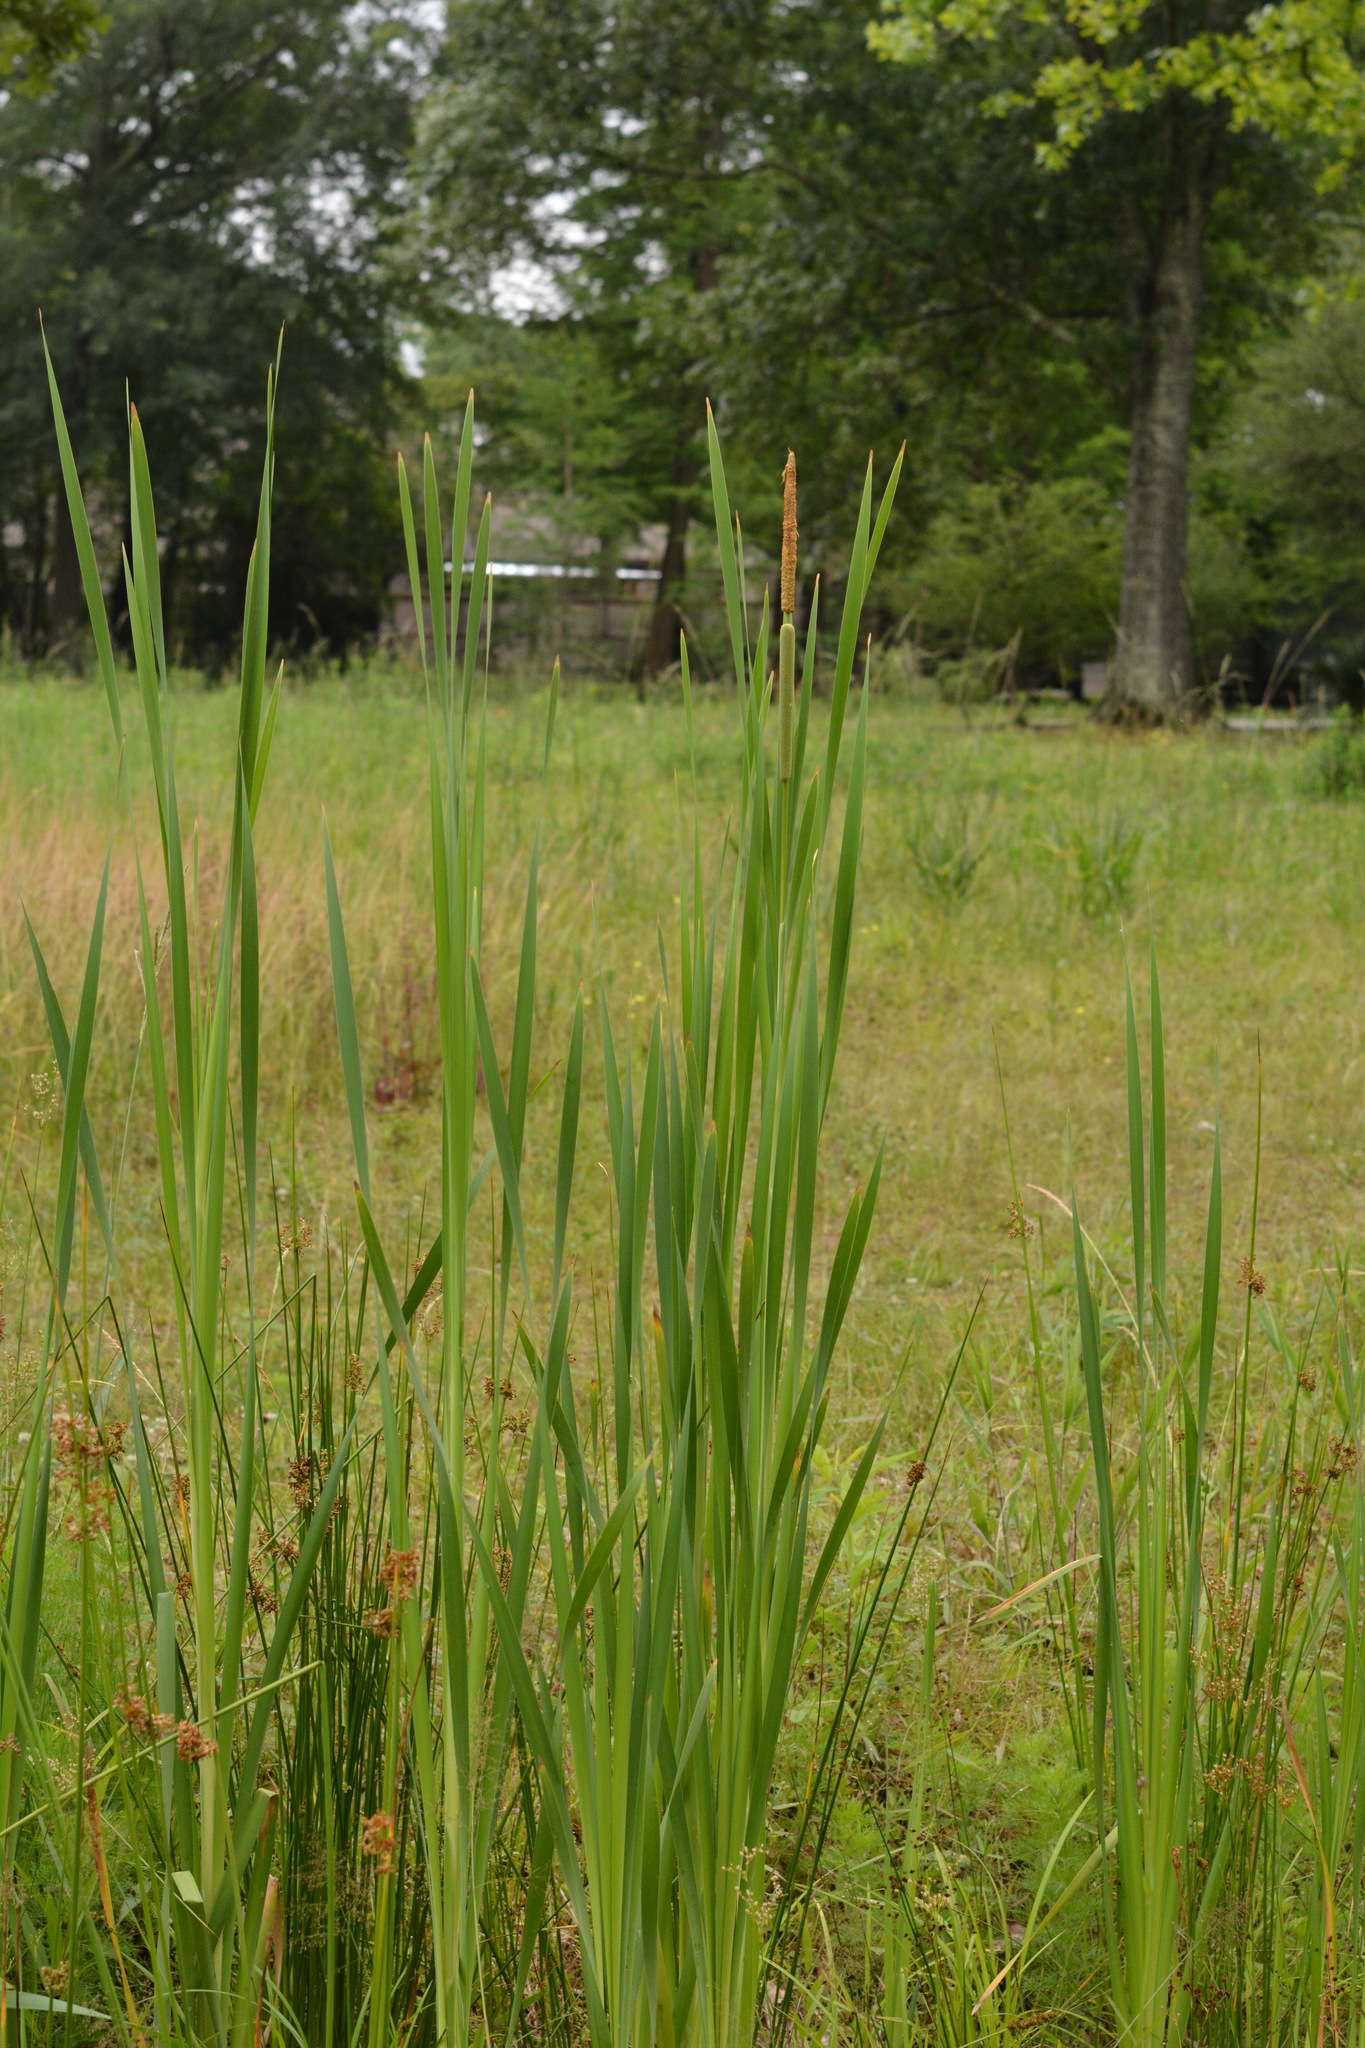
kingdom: Plantae
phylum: Tracheophyta
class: Liliopsida
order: Poales
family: Typhaceae
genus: Typha
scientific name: Typha domingensis
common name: Southern cattail
